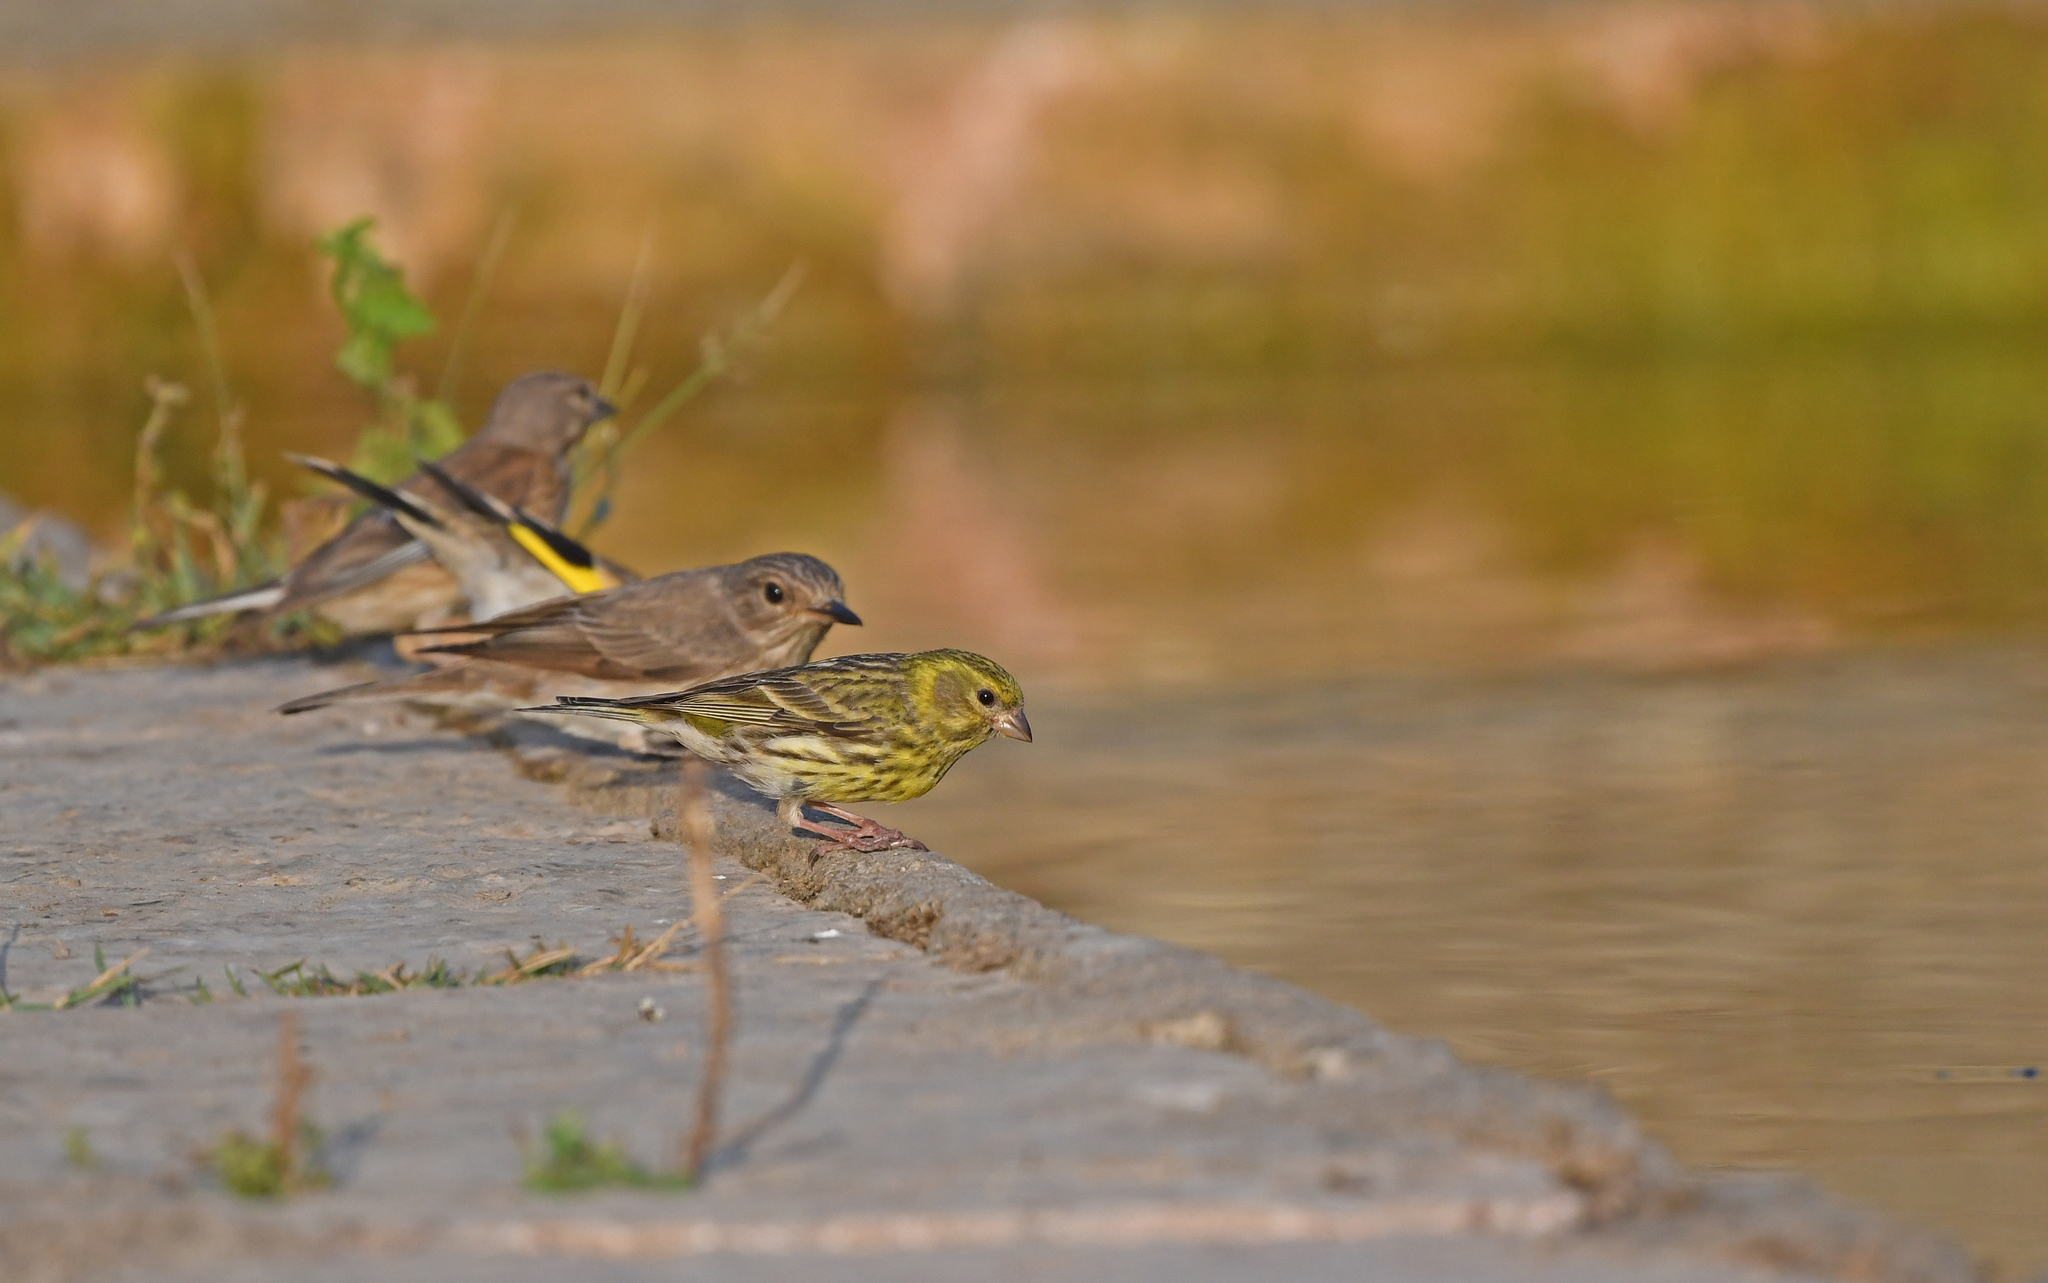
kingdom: Animalia
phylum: Chordata
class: Aves
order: Passeriformes
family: Fringillidae
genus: Serinus
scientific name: Serinus serinus
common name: European serin
